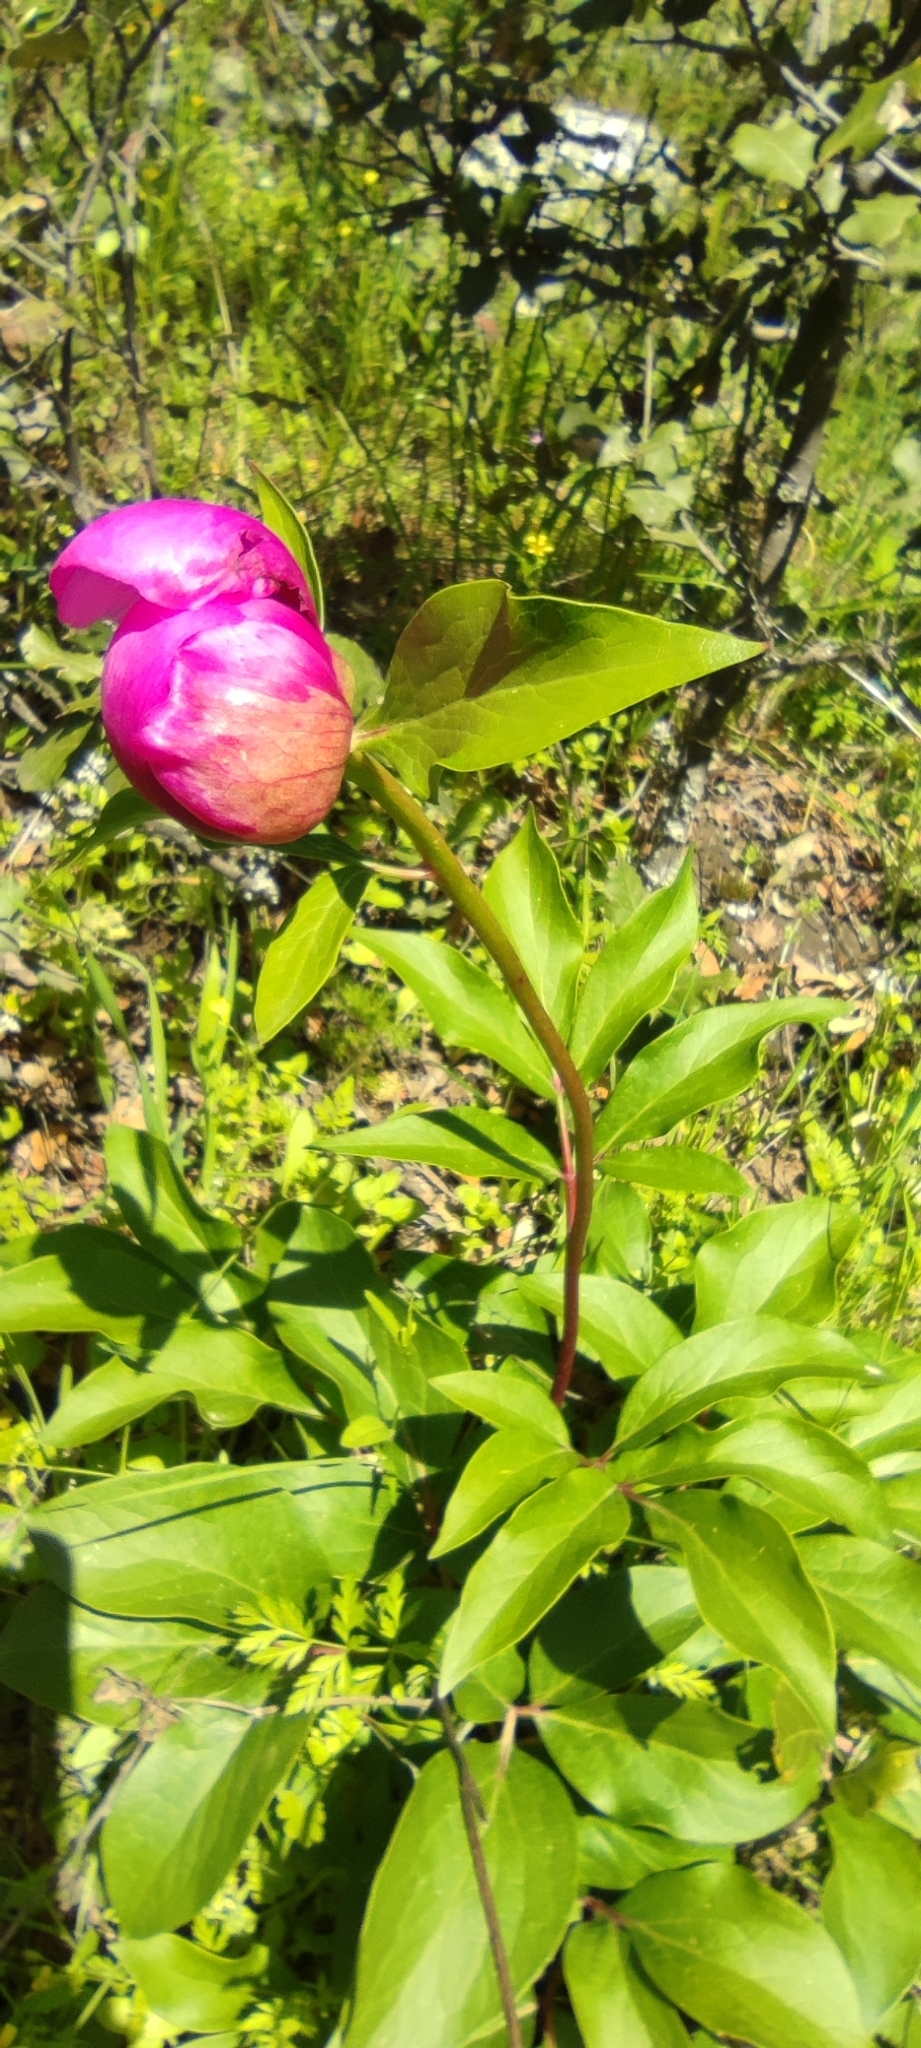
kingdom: Plantae
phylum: Tracheophyta
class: Magnoliopsida
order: Saxifragales
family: Paeoniaceae
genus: Paeonia
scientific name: Paeonia broteroi
